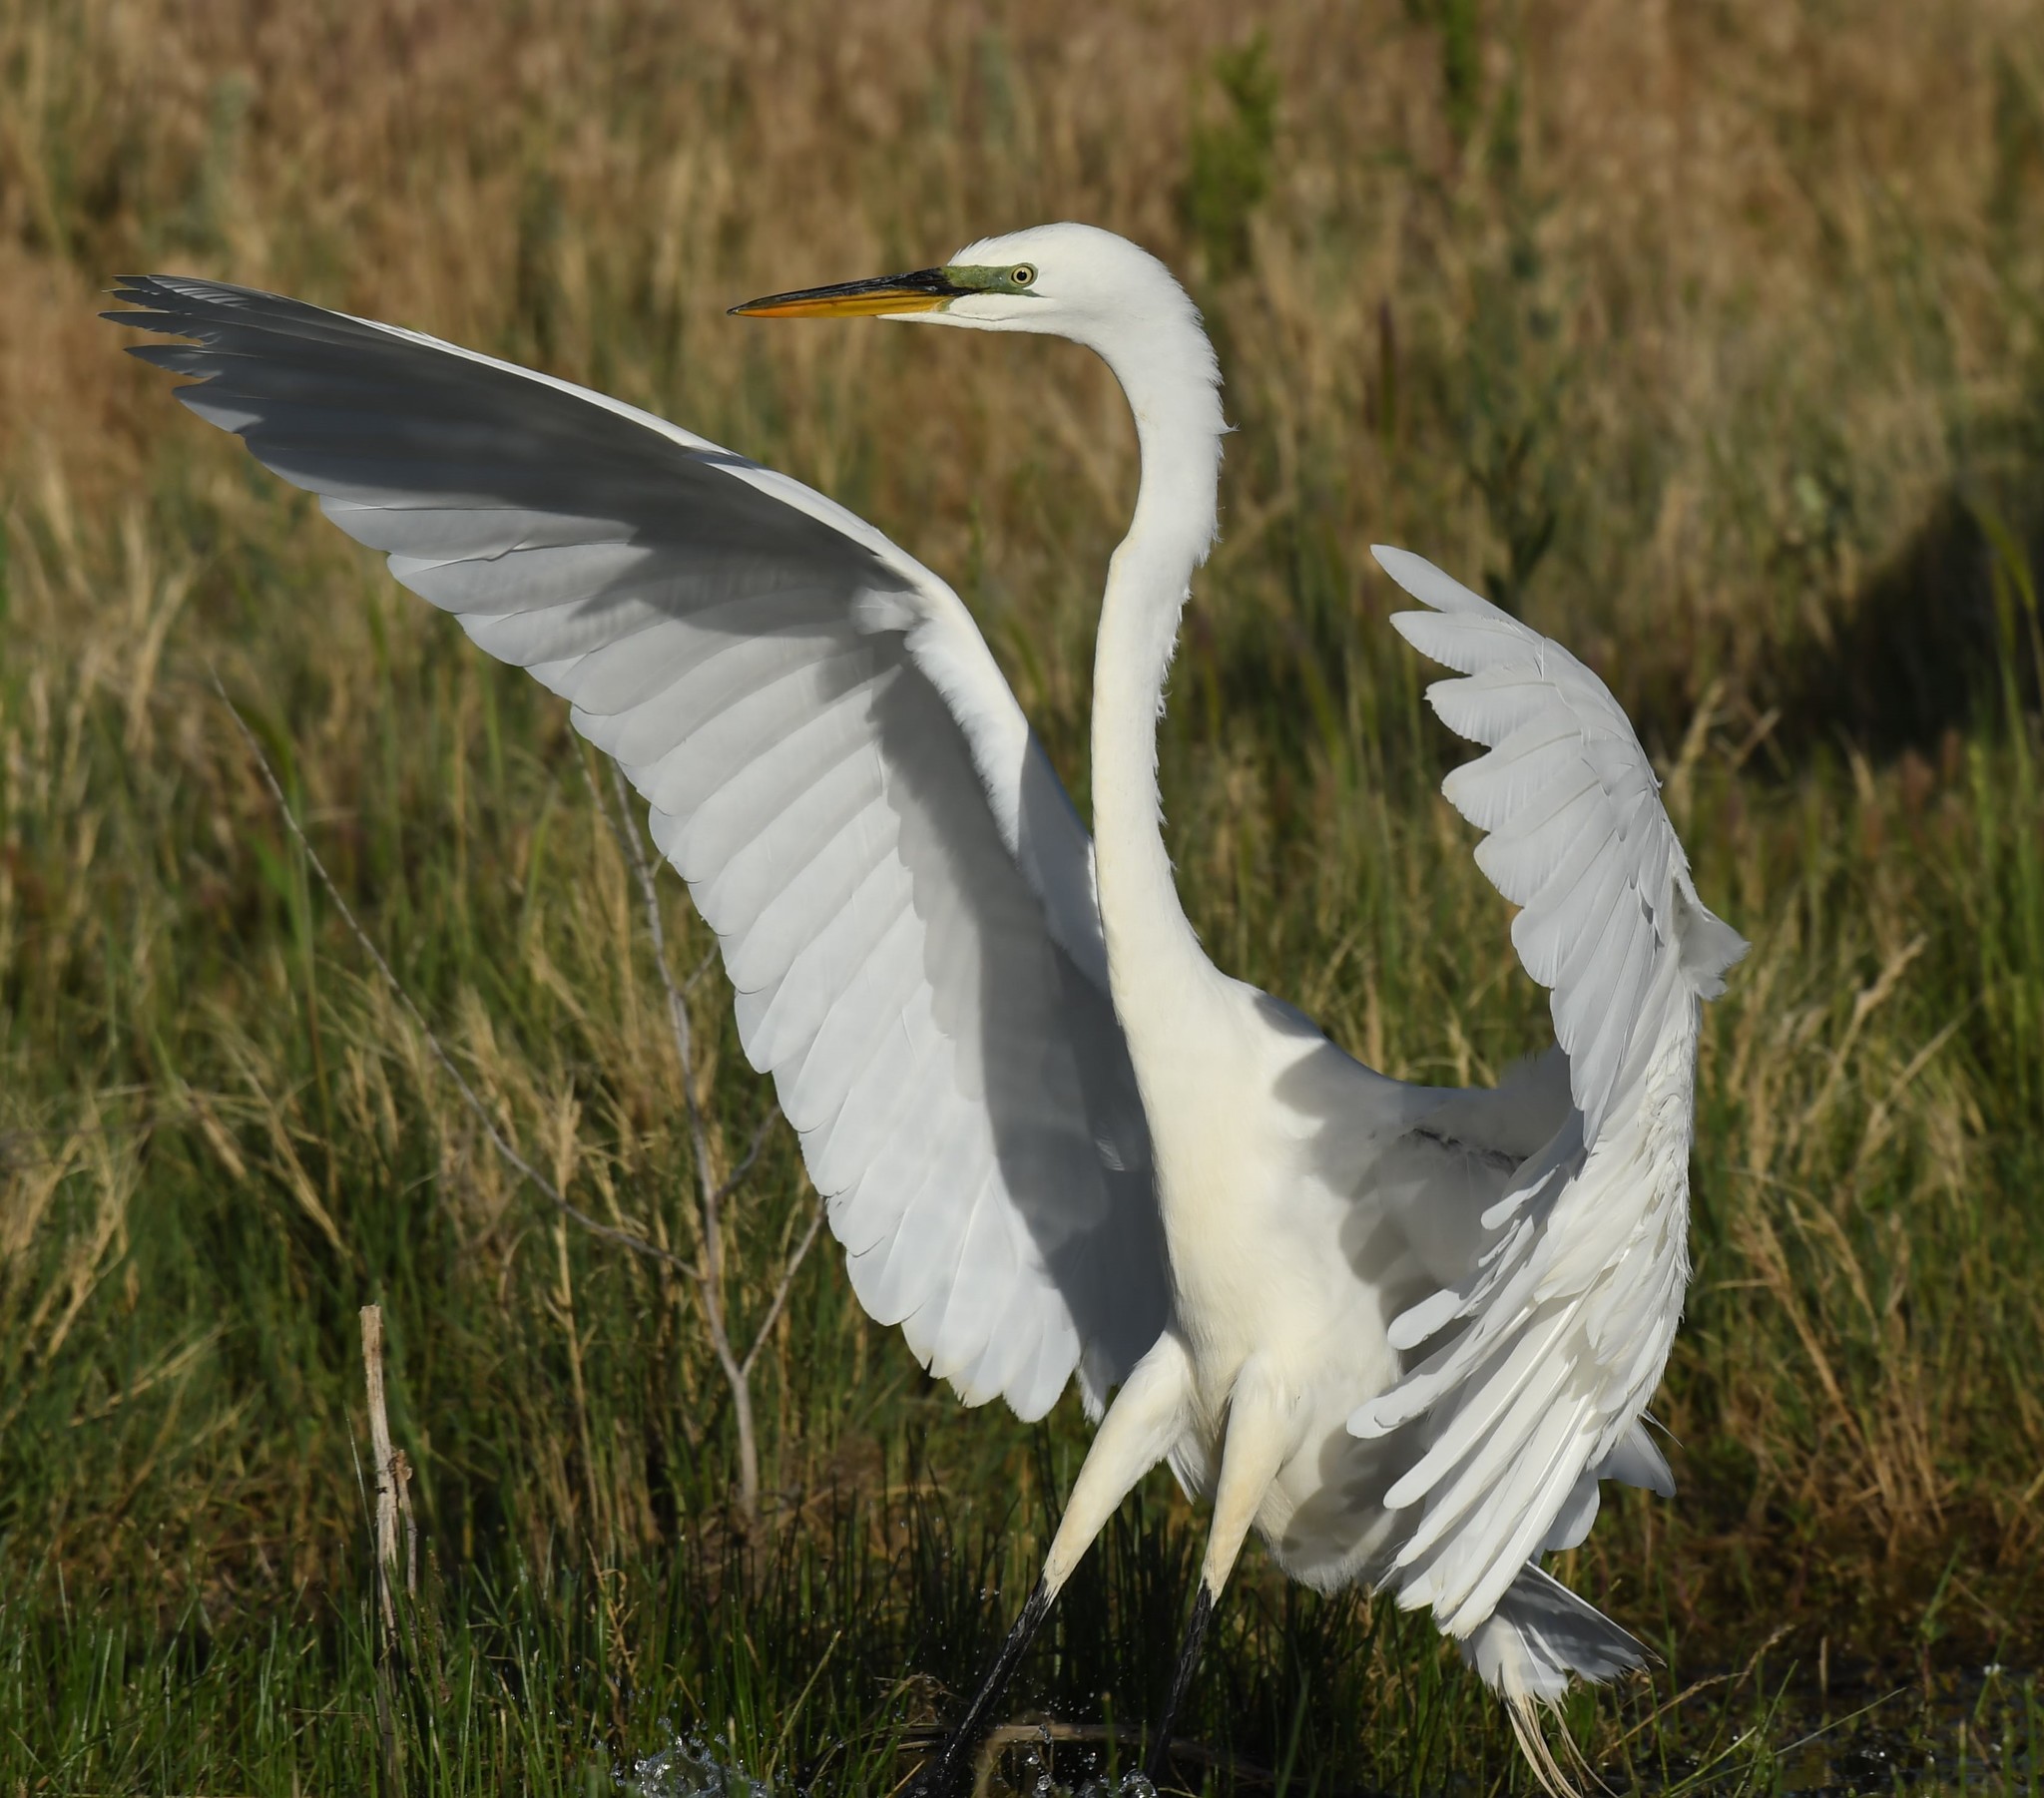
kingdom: Animalia
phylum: Chordata
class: Aves
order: Pelecaniformes
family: Ardeidae
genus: Ardea
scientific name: Ardea alba
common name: Great egret
